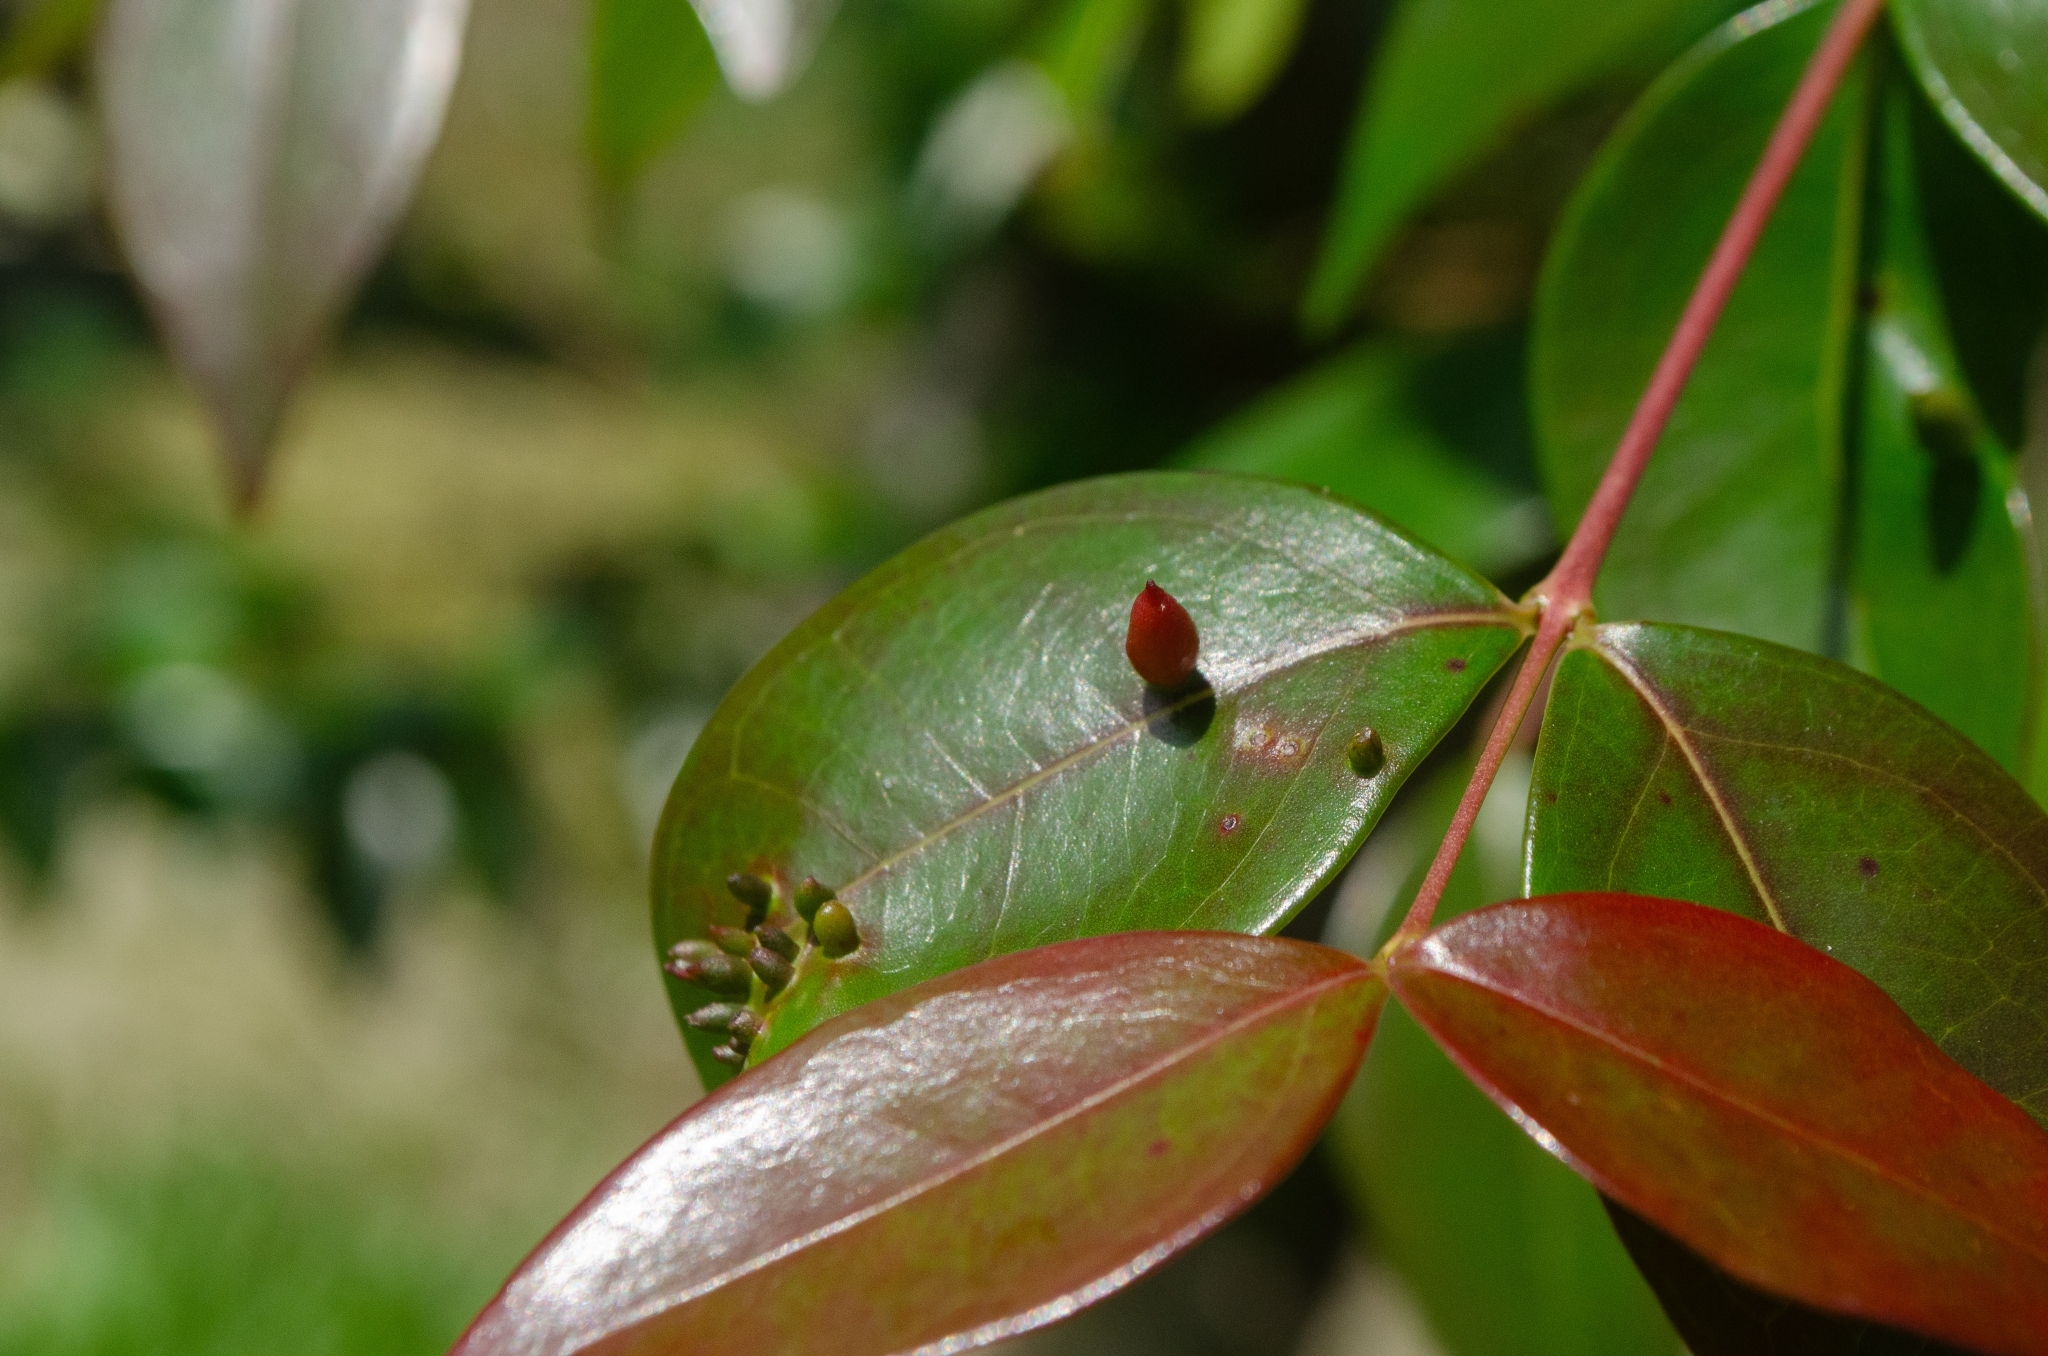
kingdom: Animalia
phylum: Arthropoda
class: Insecta
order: Diptera
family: Cecidomyiidae
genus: Clinodiplosis
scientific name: Clinodiplosis profusa
